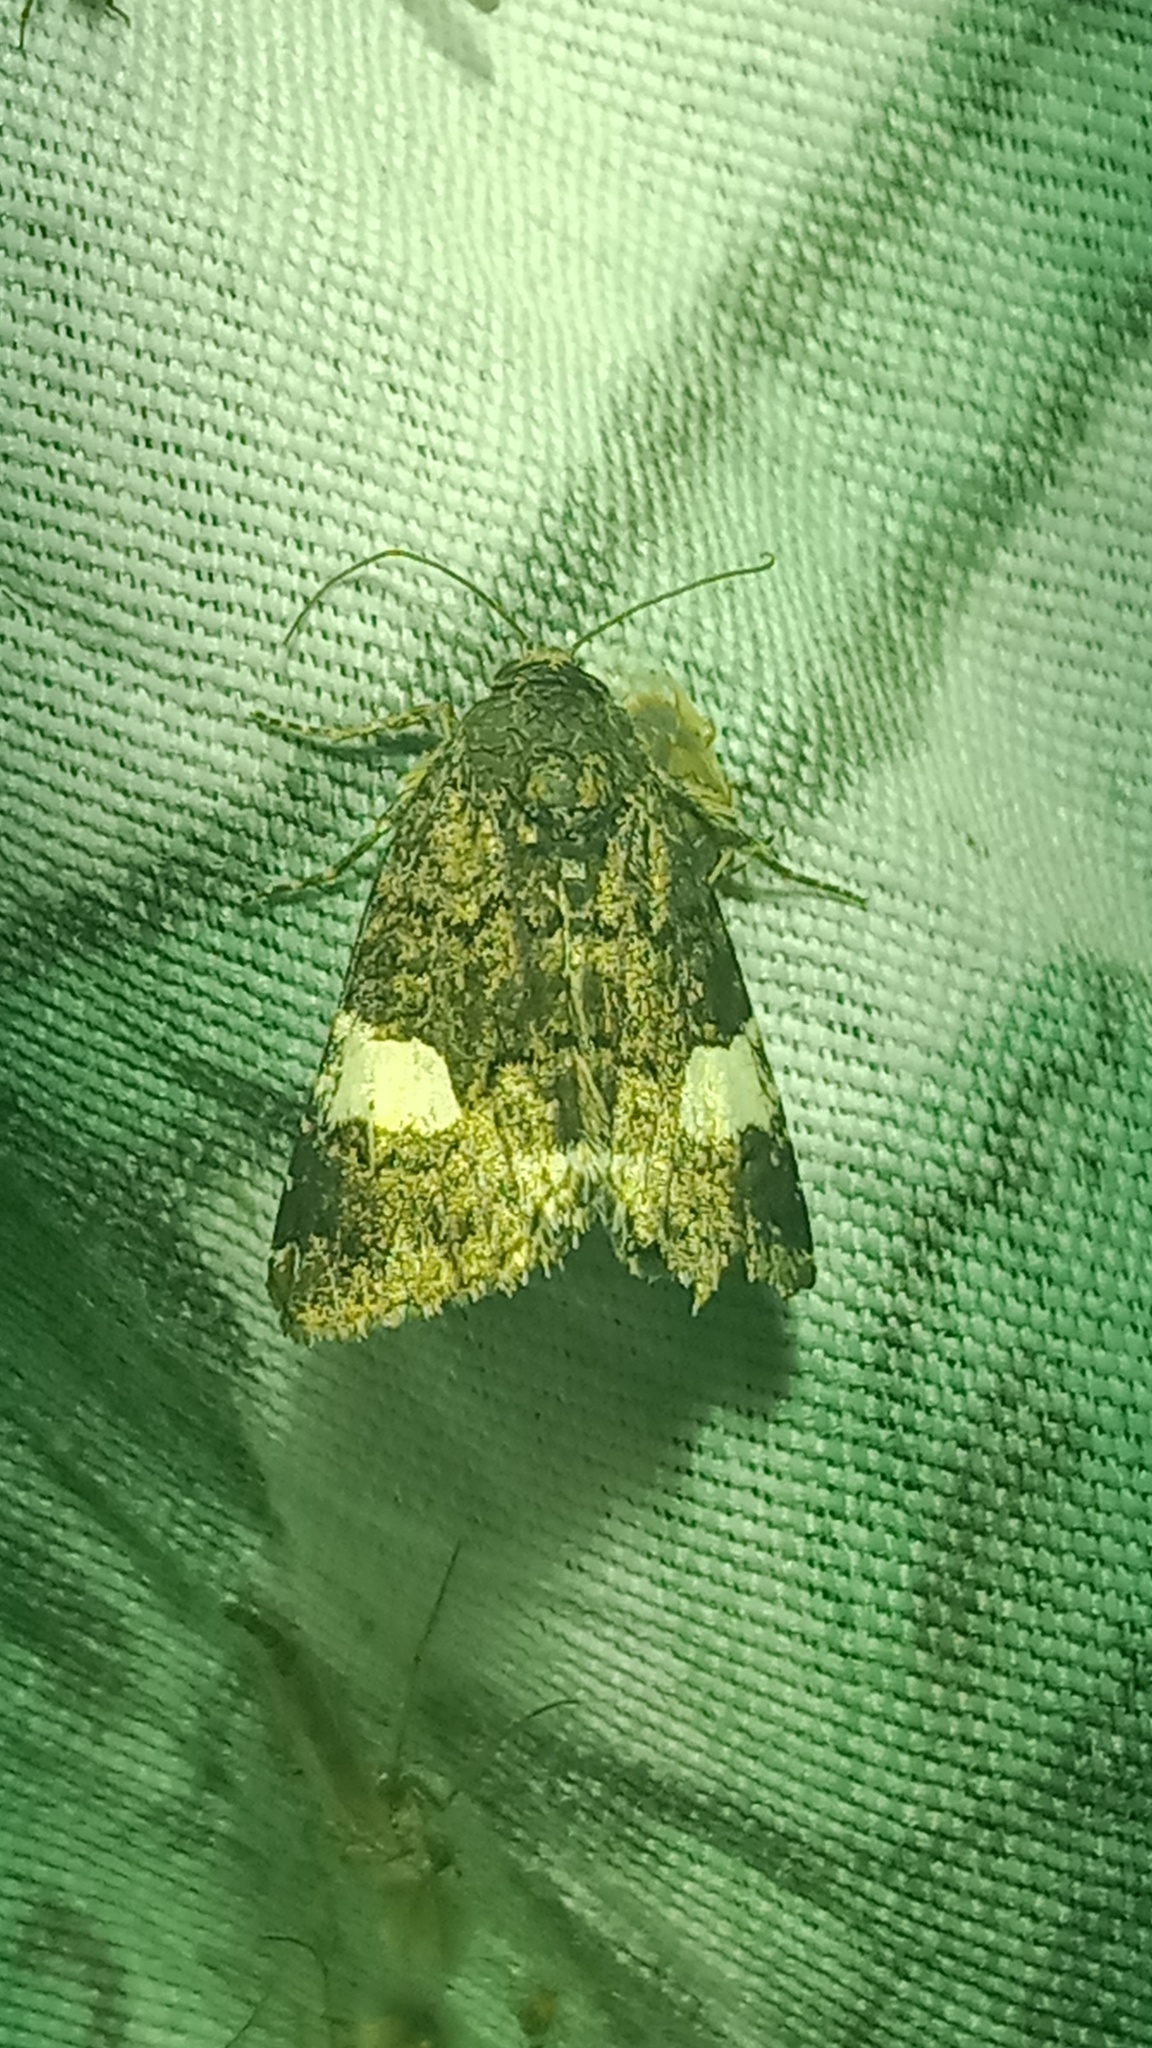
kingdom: Animalia
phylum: Arthropoda
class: Insecta
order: Lepidoptera
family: Erebidae
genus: Tyta
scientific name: Tyta luctuosa
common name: Four-spotted
